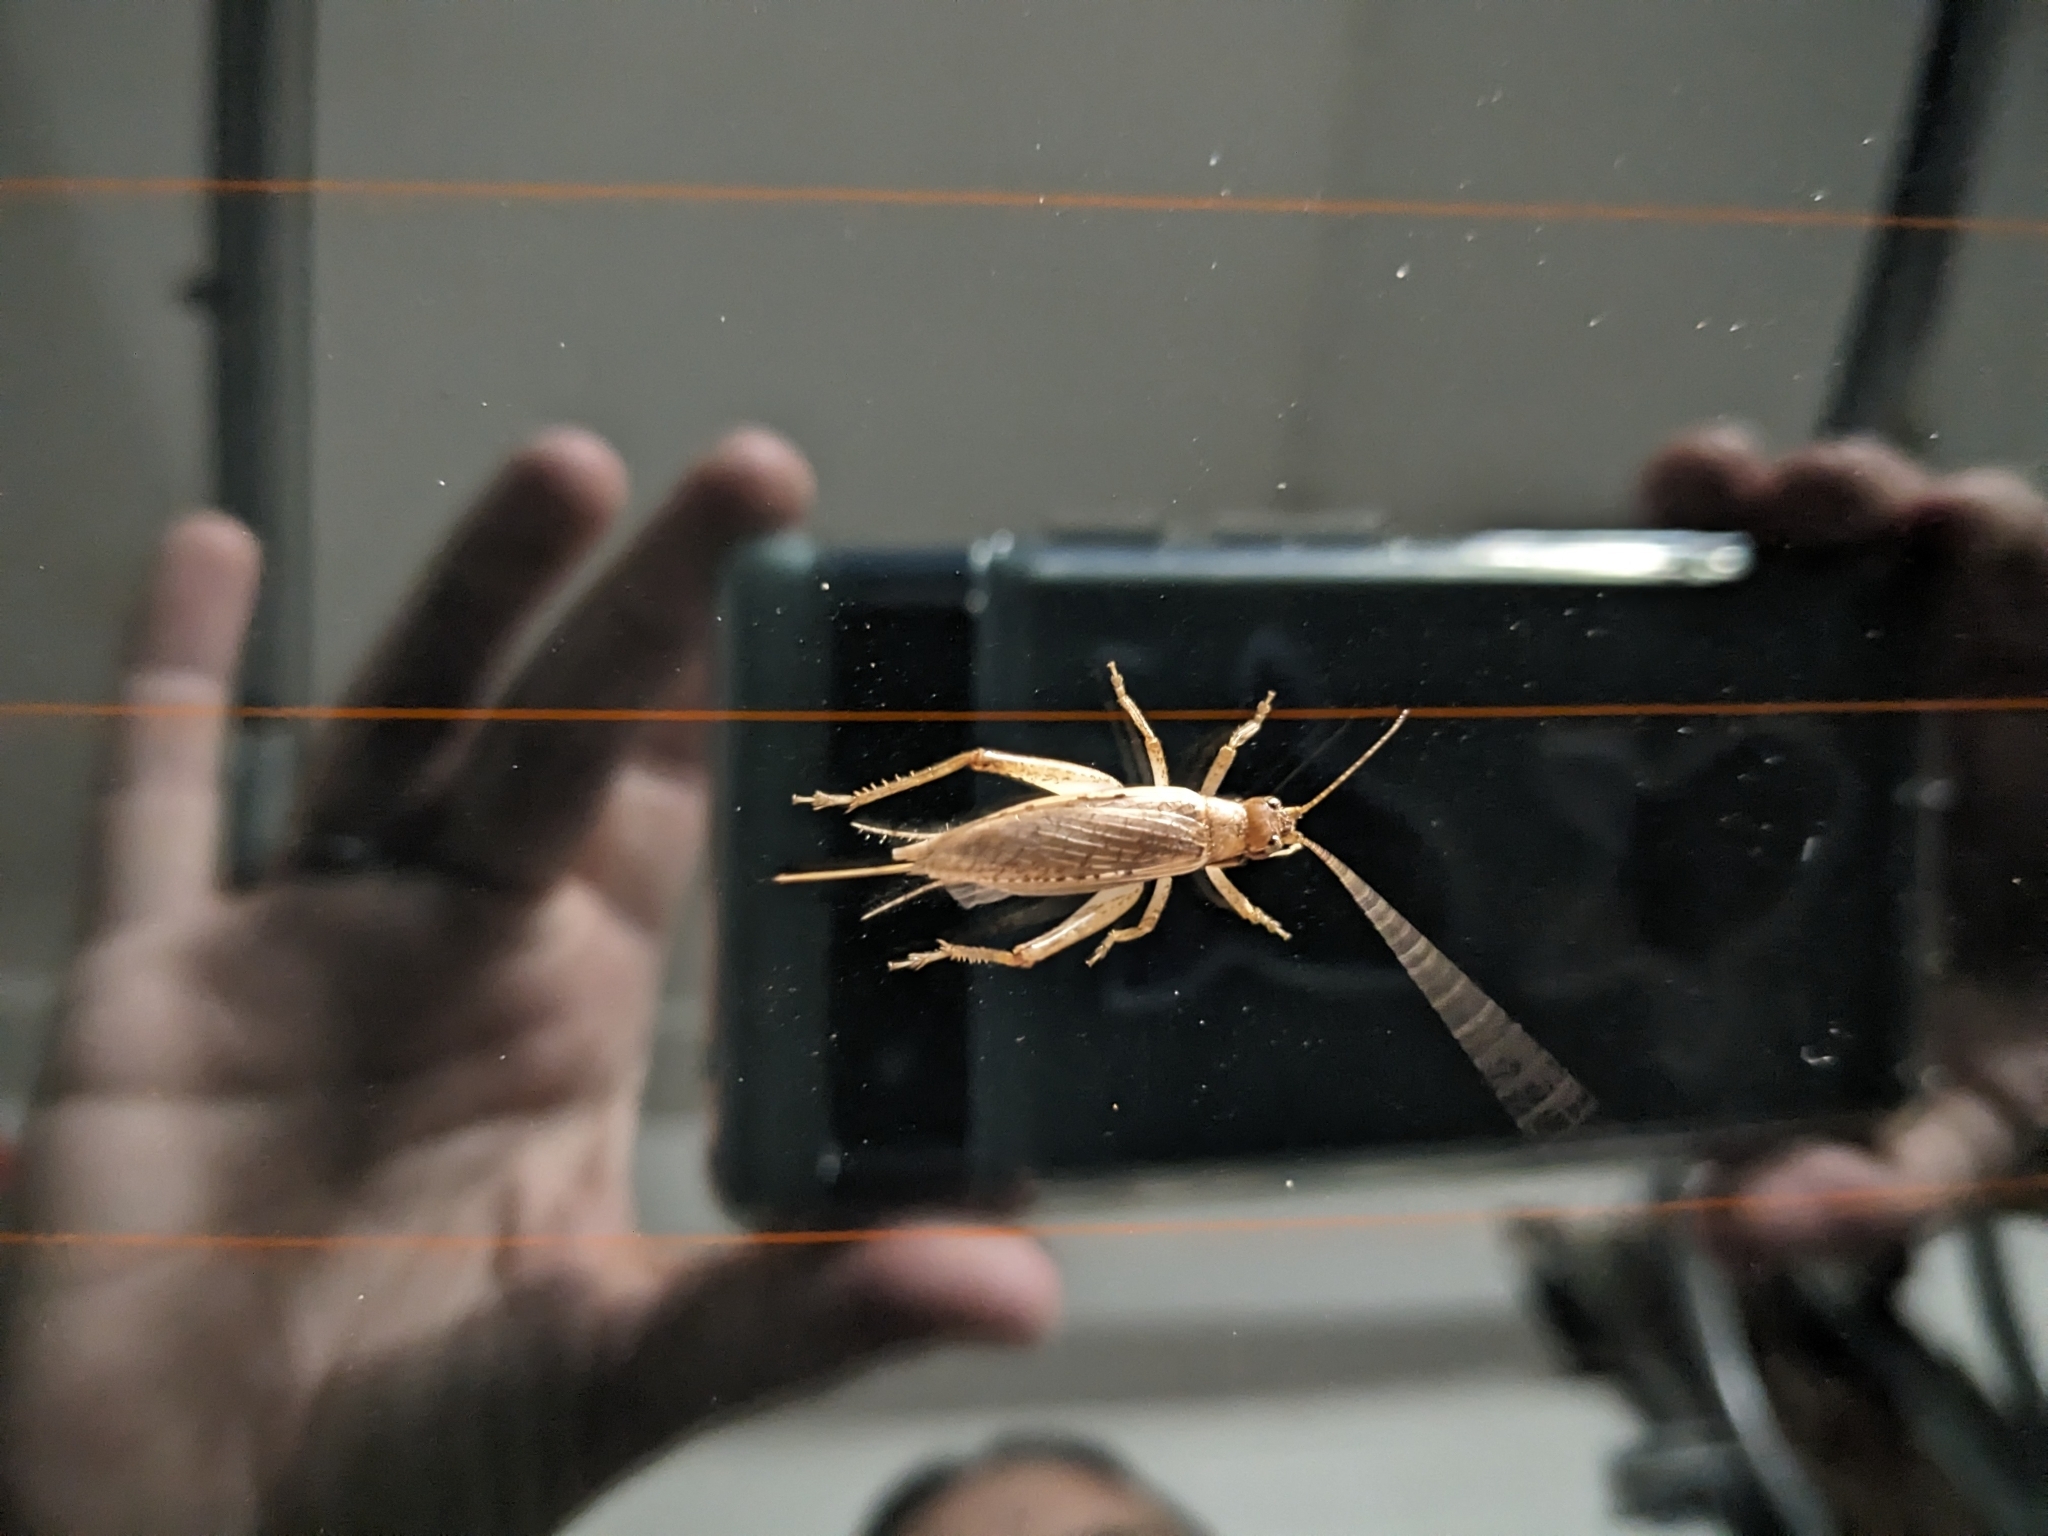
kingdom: Animalia
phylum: Arthropoda
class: Insecta
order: Orthoptera
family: Gryllidae
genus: Hapithus
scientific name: Hapithus saltator
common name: Jumping bush cricket
